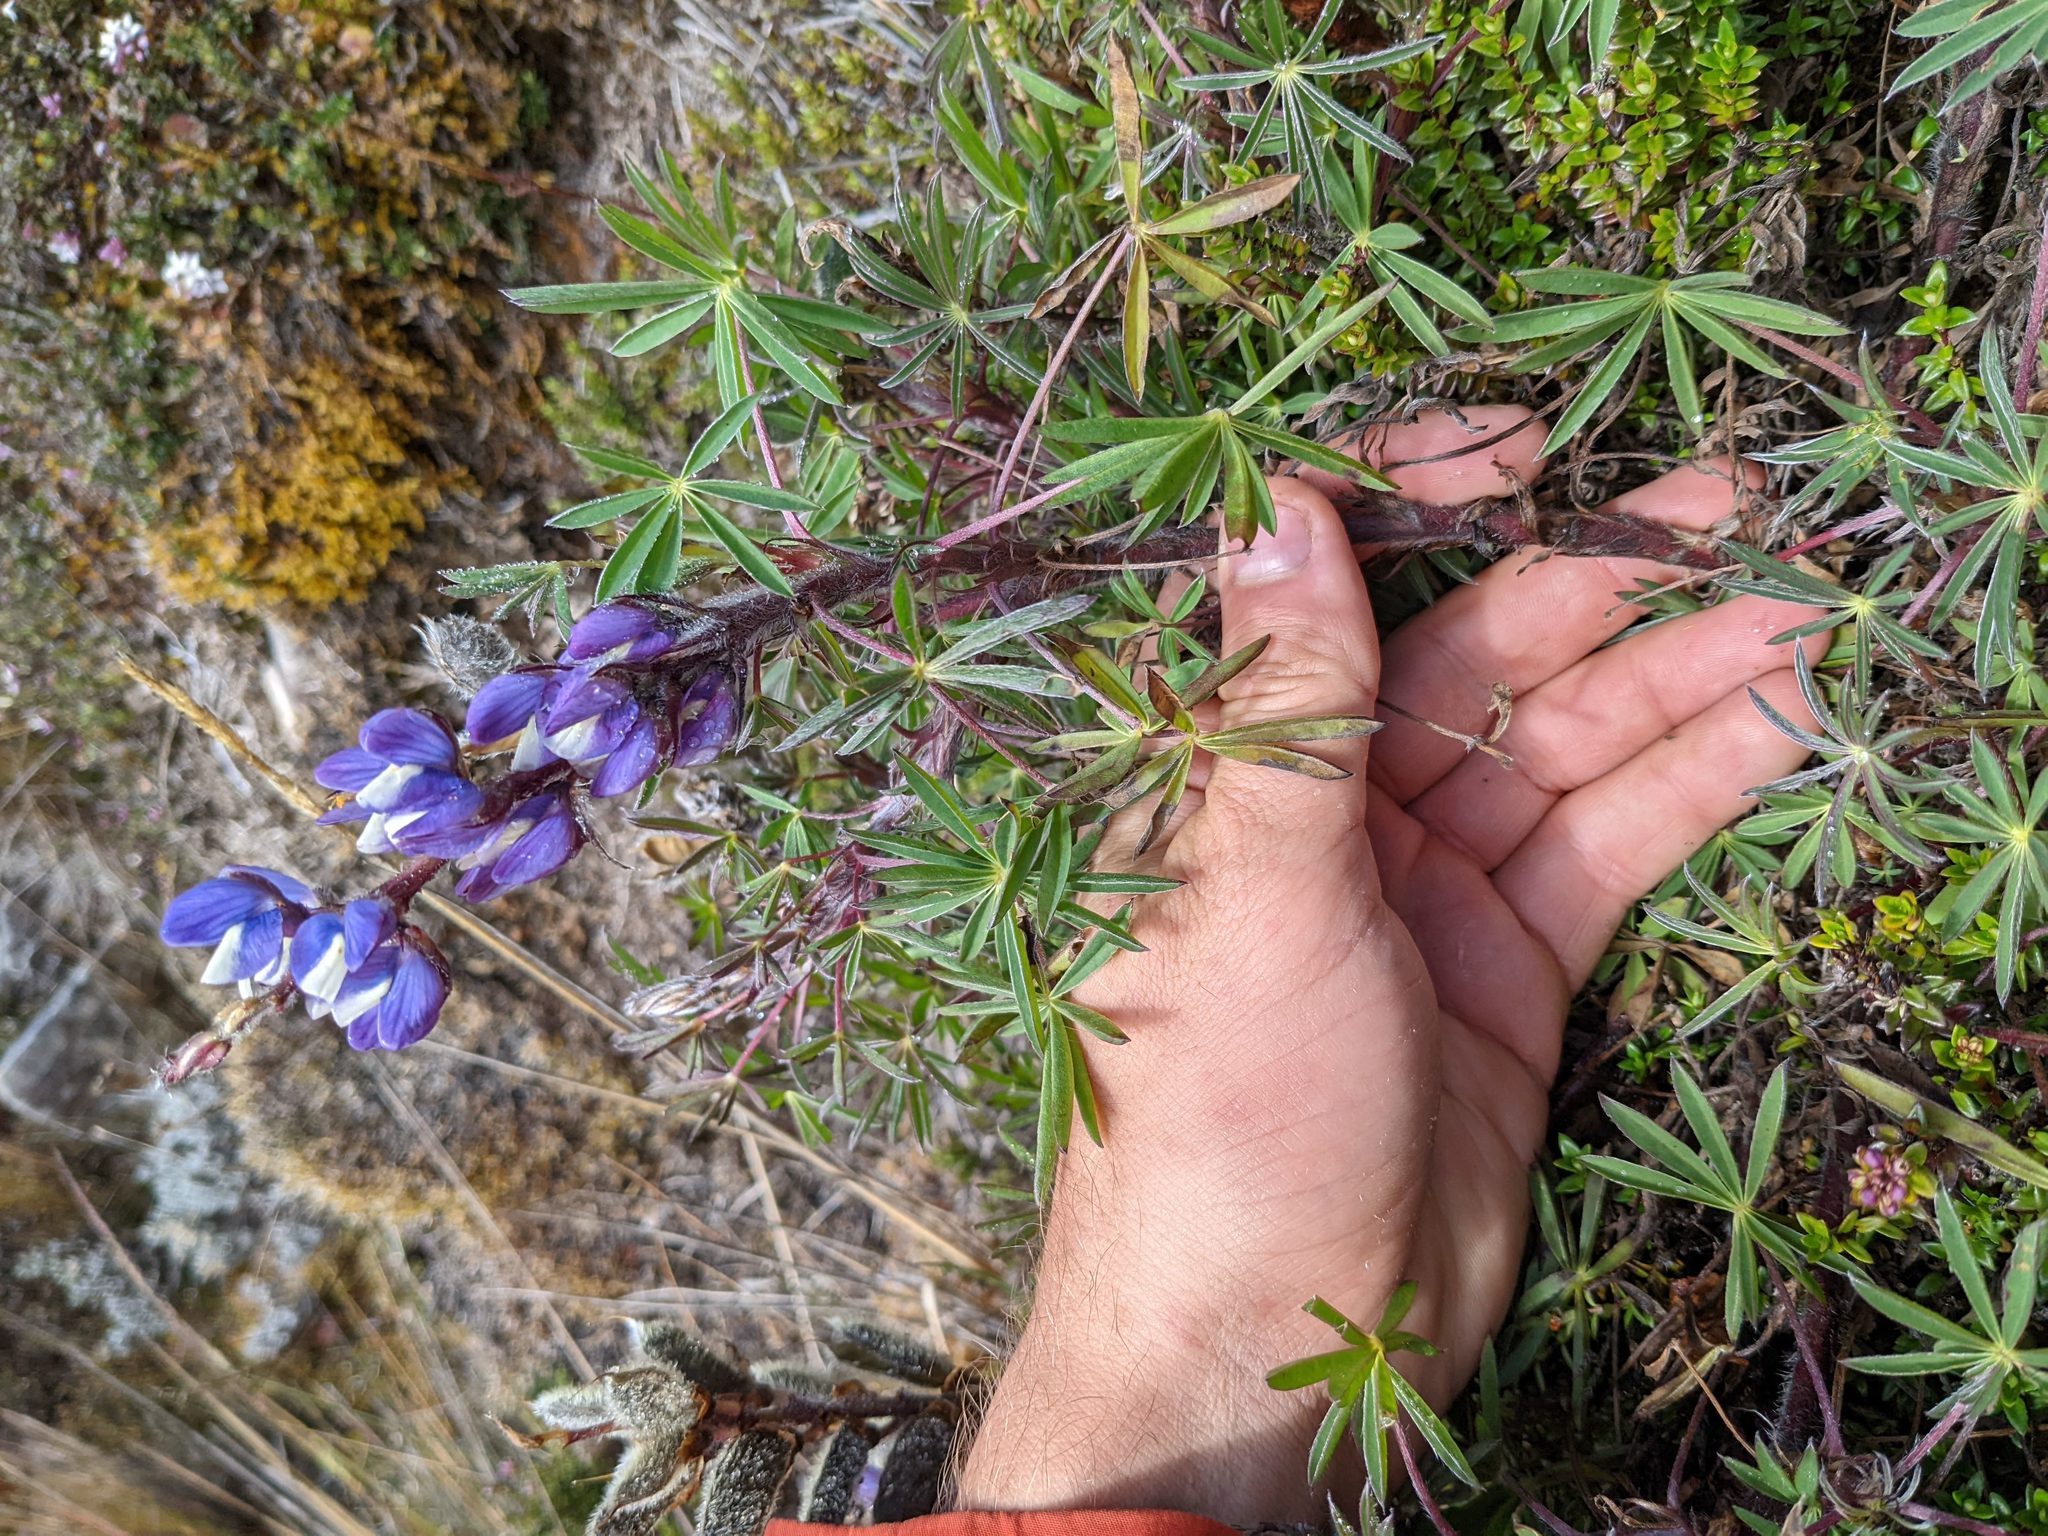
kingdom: Plantae
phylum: Tracheophyta
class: Magnoliopsida
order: Fabales
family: Fabaceae
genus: Lupinus
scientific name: Lupinus costaricensis
